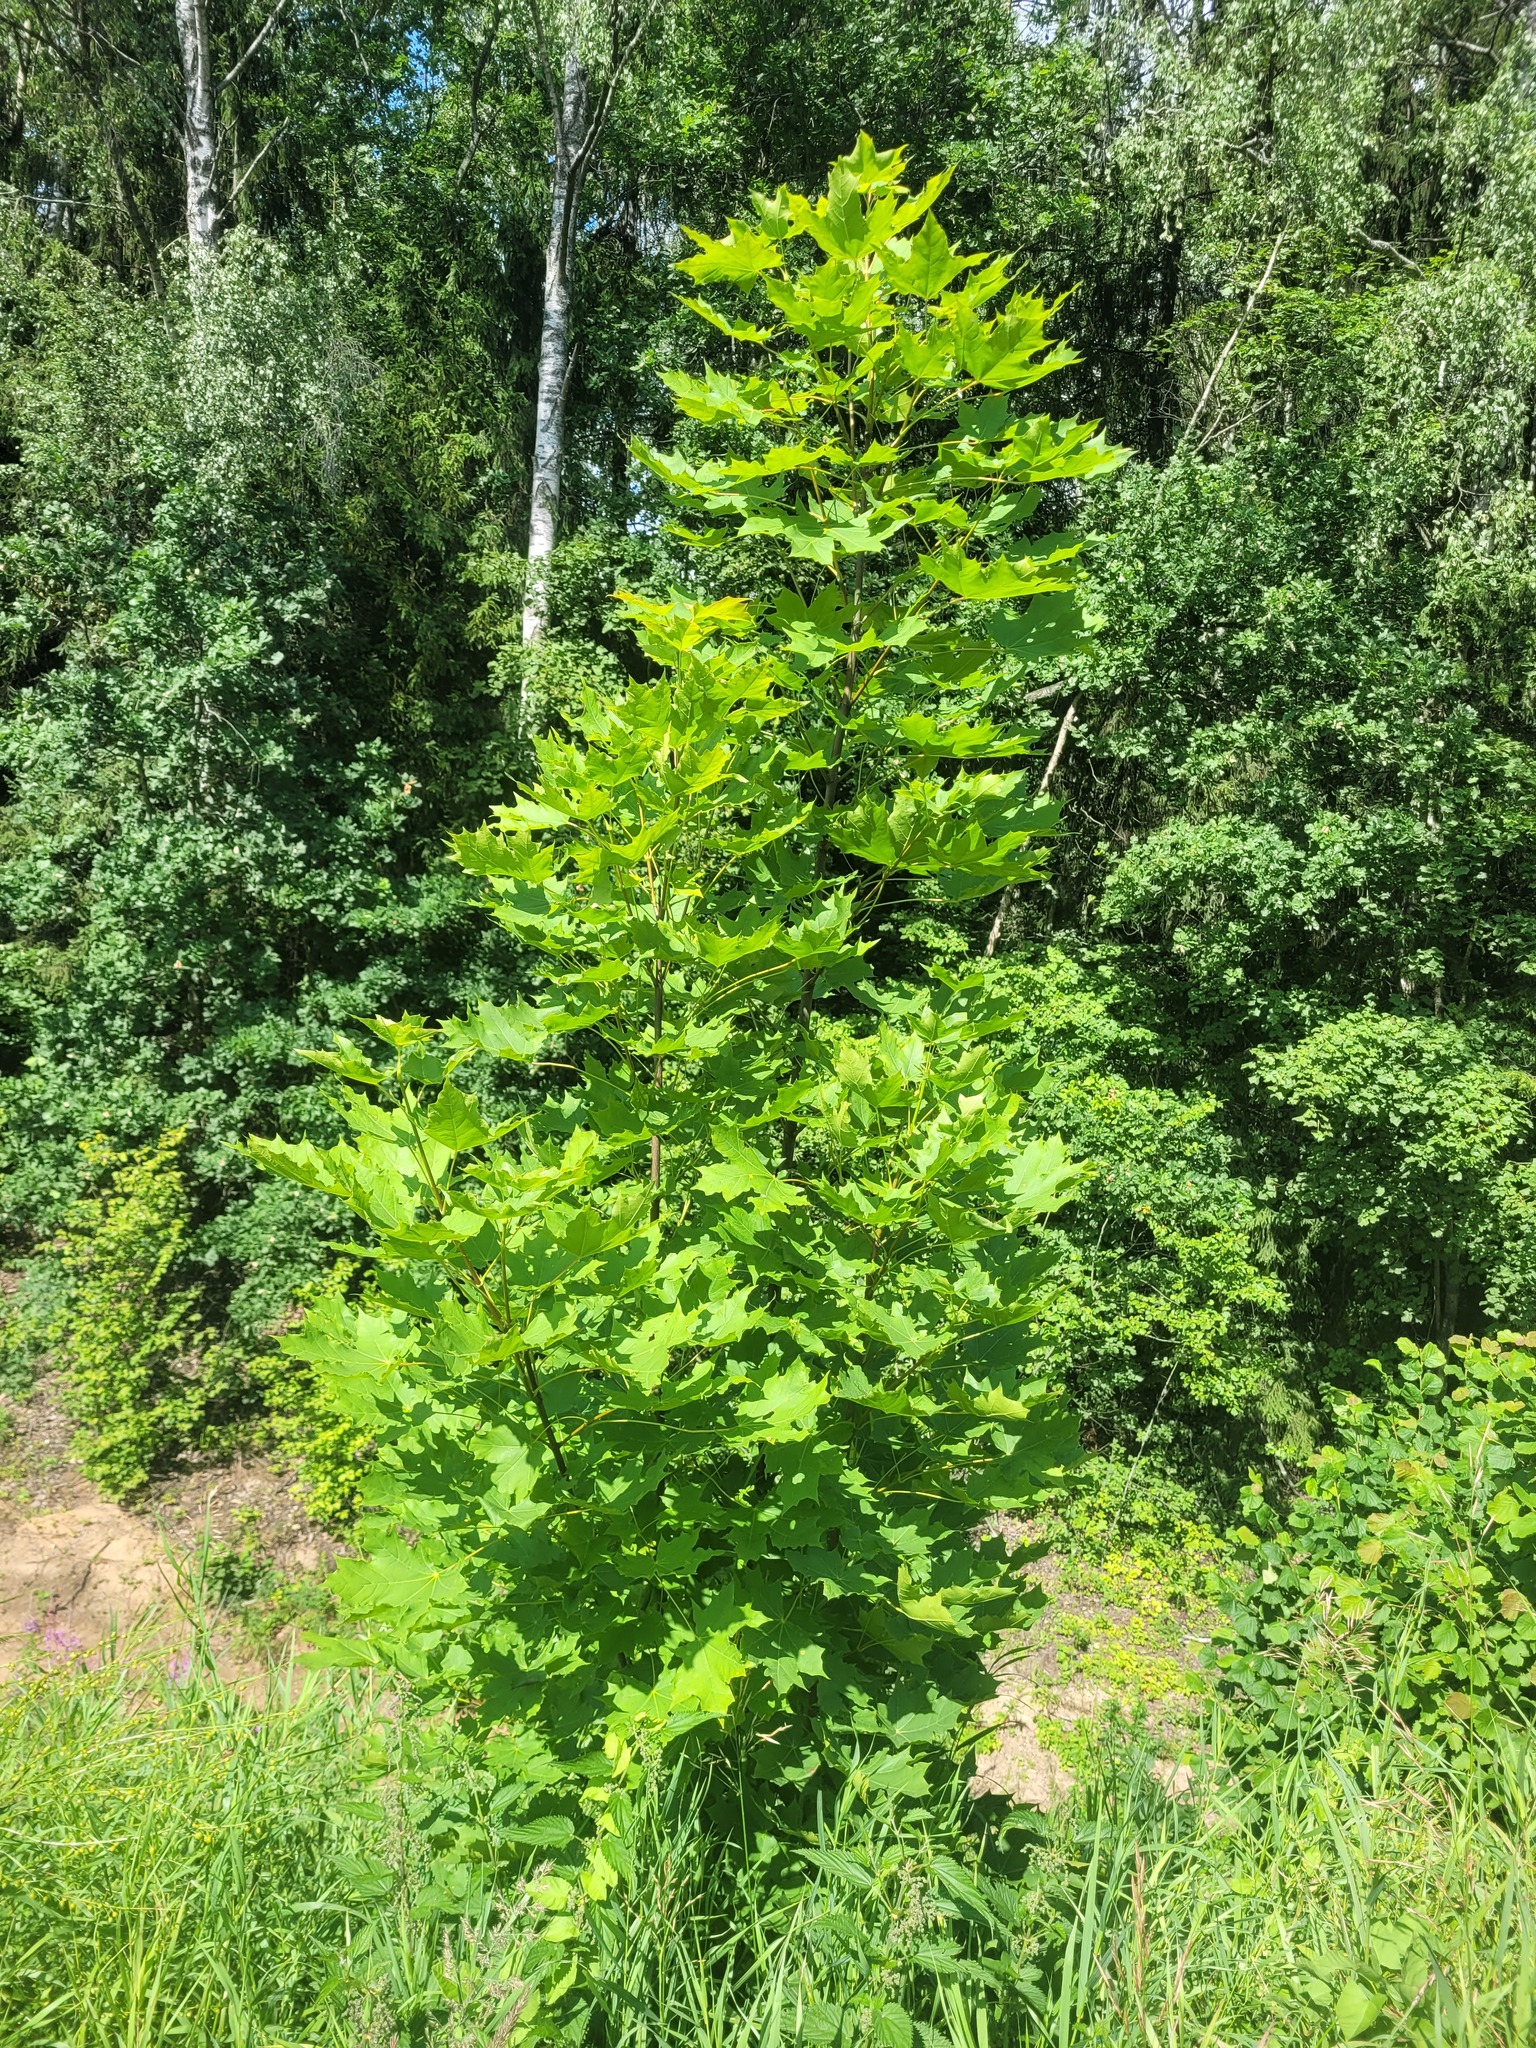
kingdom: Plantae
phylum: Tracheophyta
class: Magnoliopsida
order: Sapindales
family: Sapindaceae
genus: Acer
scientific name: Acer platanoides
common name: Norway maple
